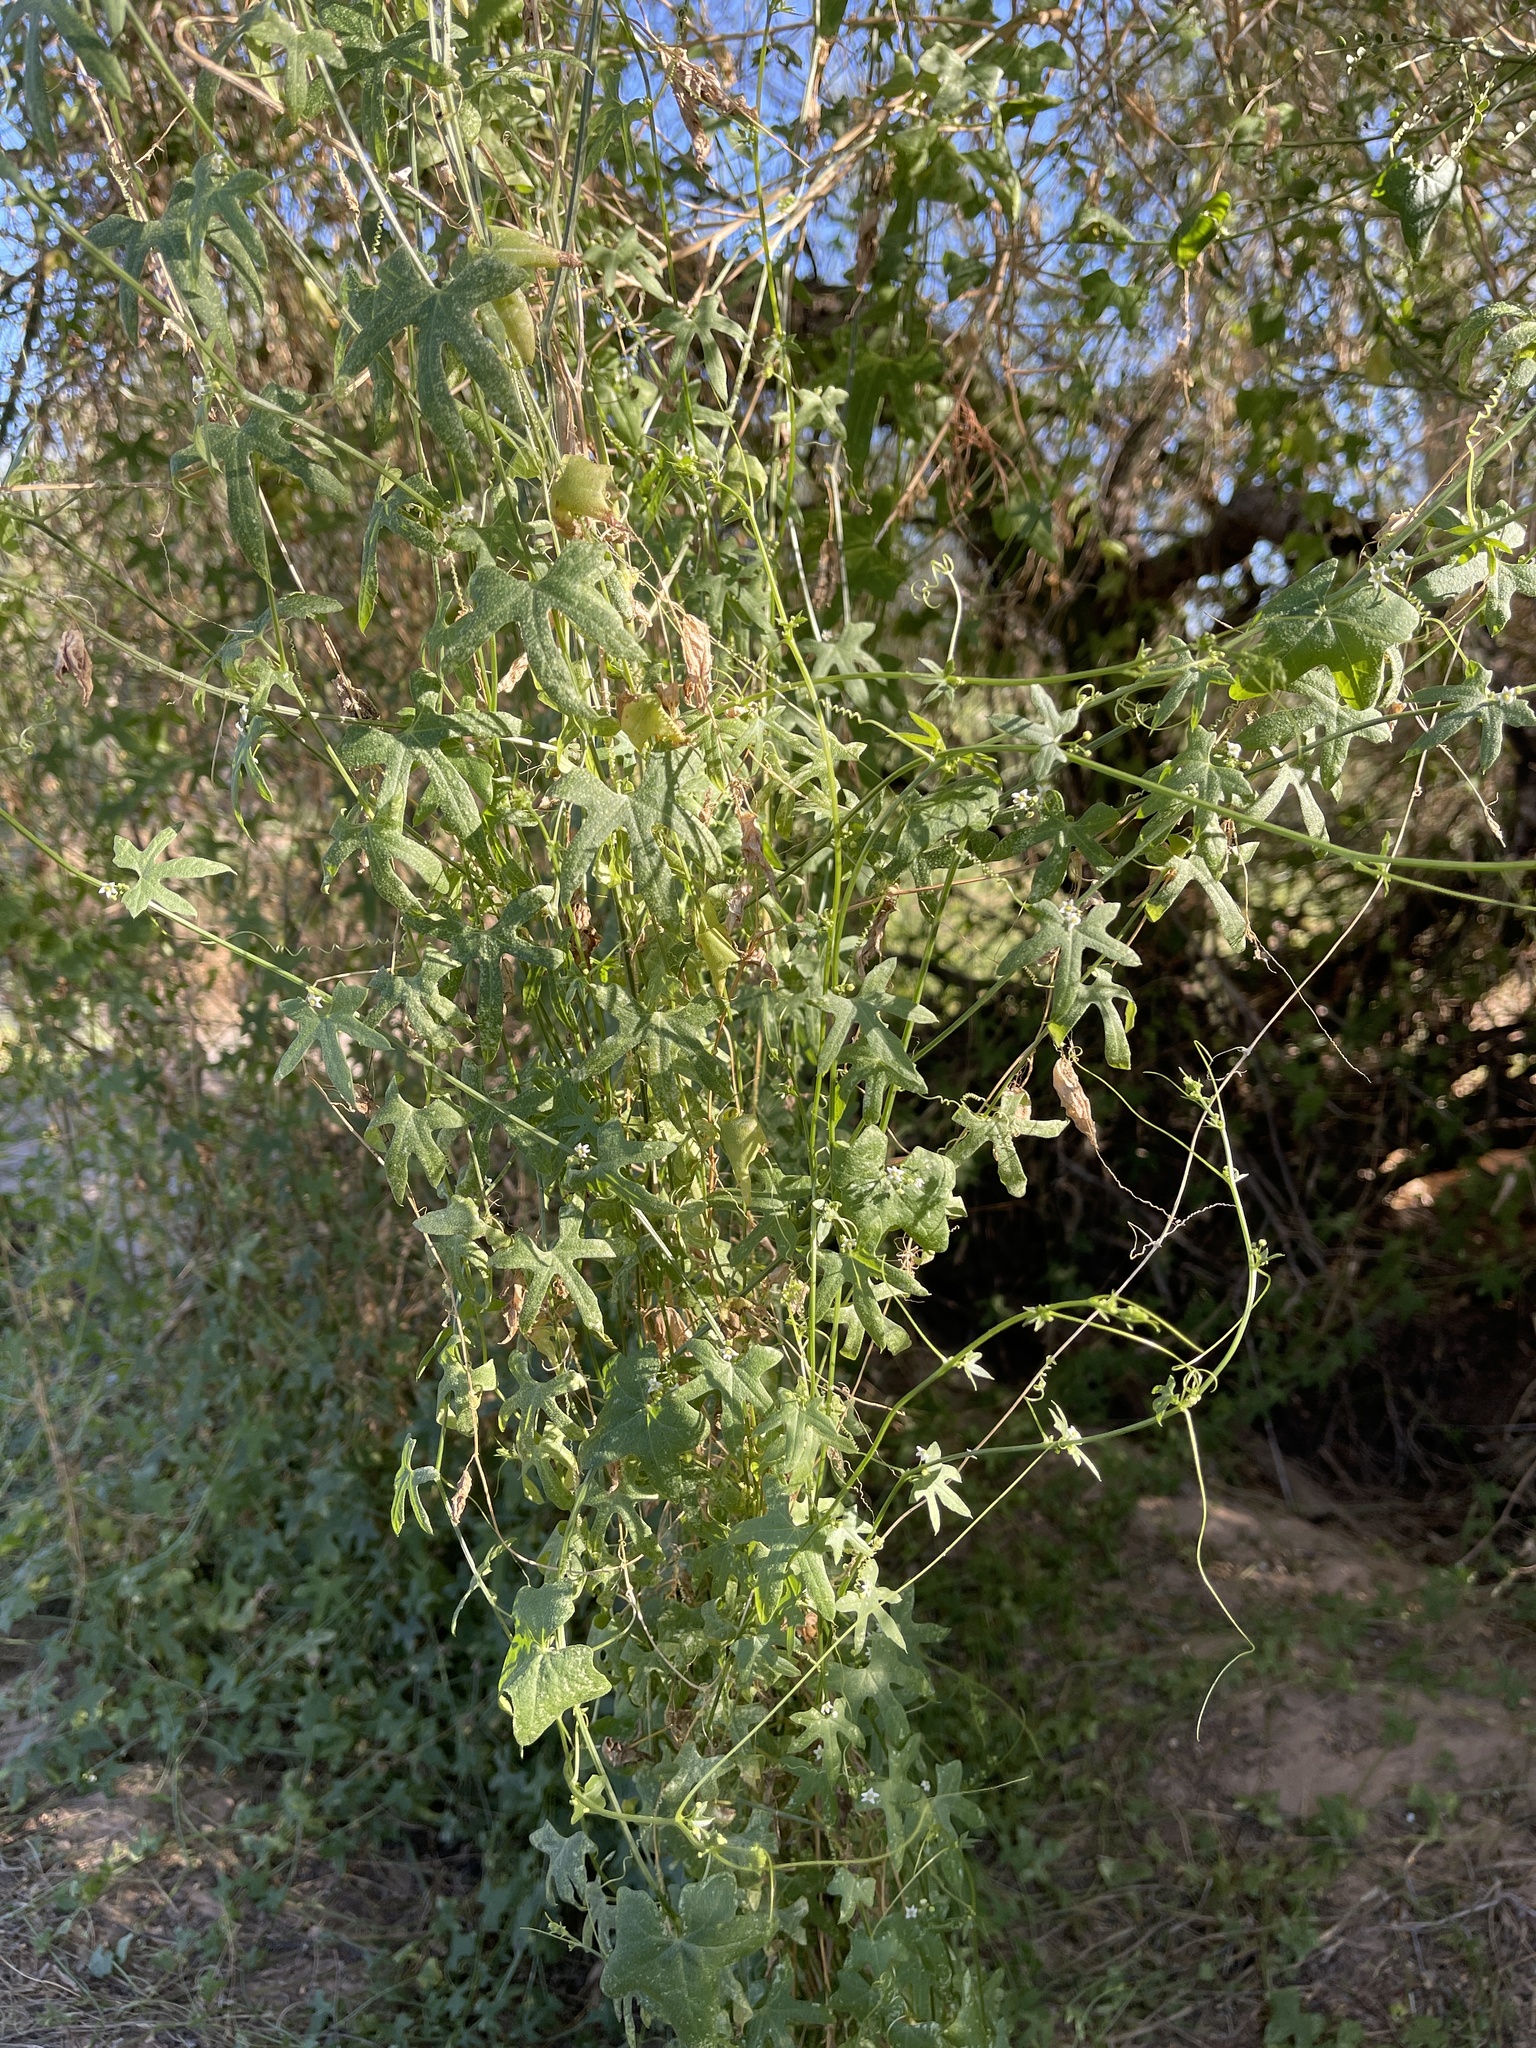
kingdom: Plantae
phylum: Tracheophyta
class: Magnoliopsida
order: Cucurbitales
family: Cucurbitaceae
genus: Echinopepon
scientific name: Echinopepon bigelovii
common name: Desert starvine
